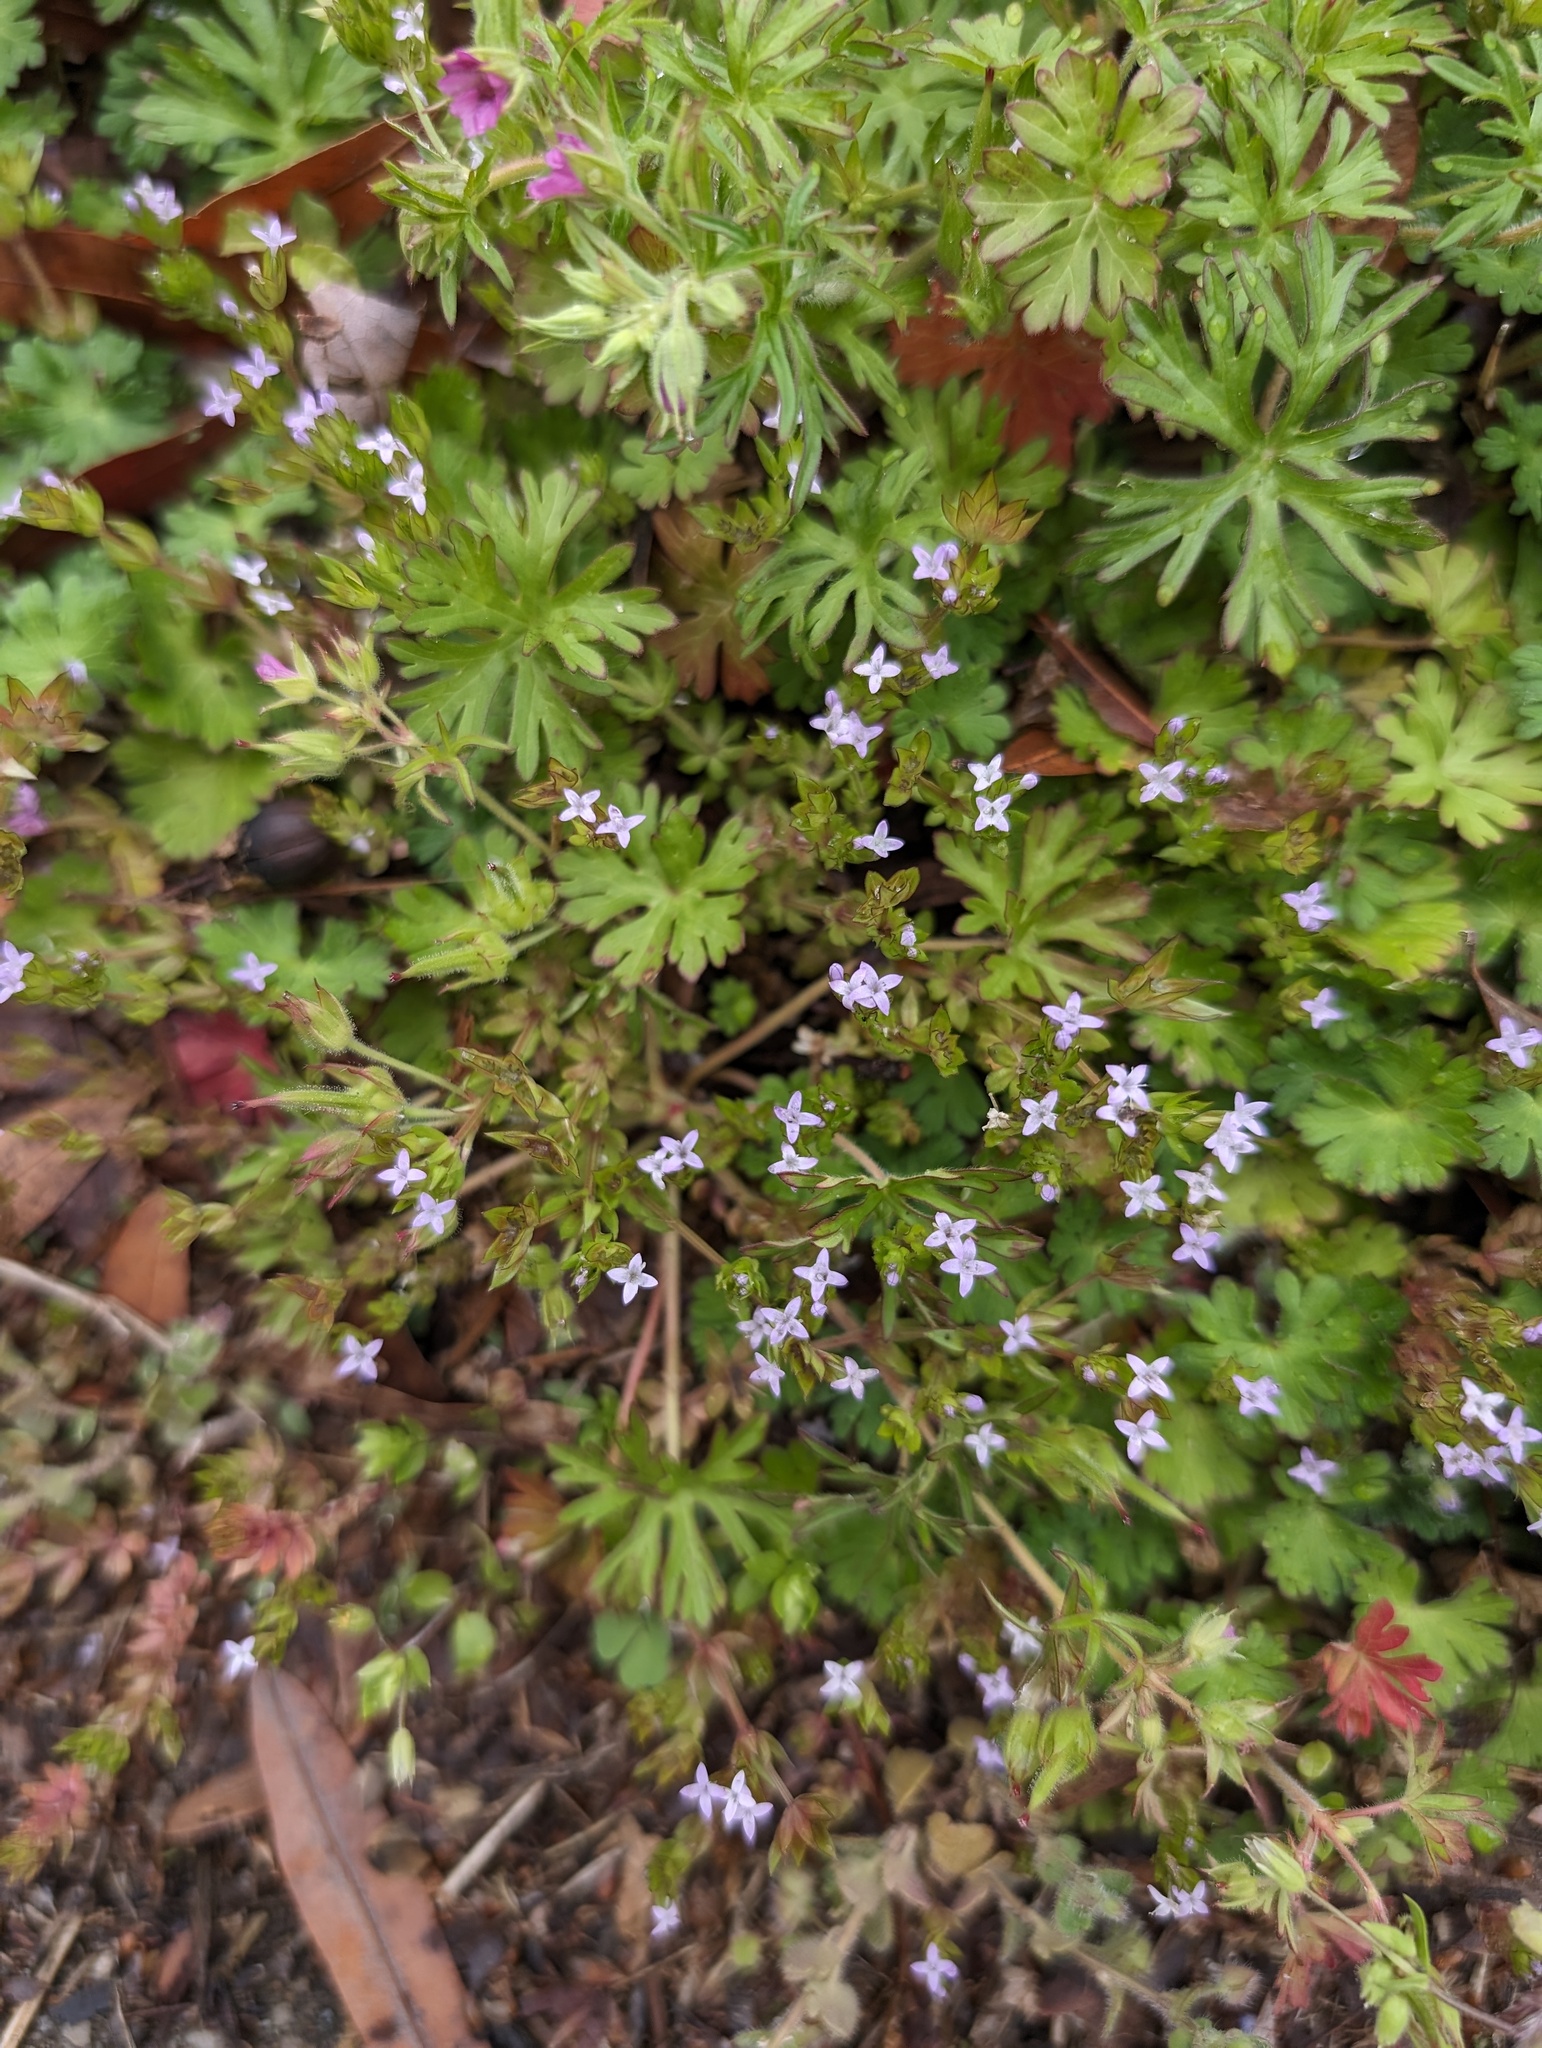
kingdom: Plantae
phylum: Tracheophyta
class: Magnoliopsida
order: Gentianales
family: Rubiaceae
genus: Sherardia
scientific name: Sherardia arvensis
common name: Field madder
